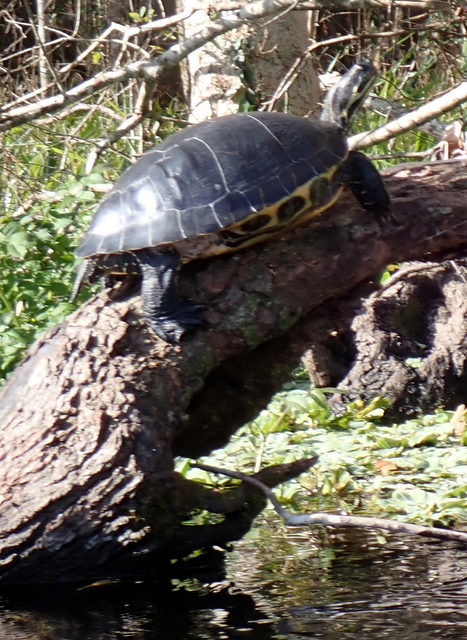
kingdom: Animalia
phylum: Chordata
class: Testudines
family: Emydidae
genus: Pseudemys
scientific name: Pseudemys concinna
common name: Eastern river cooter
